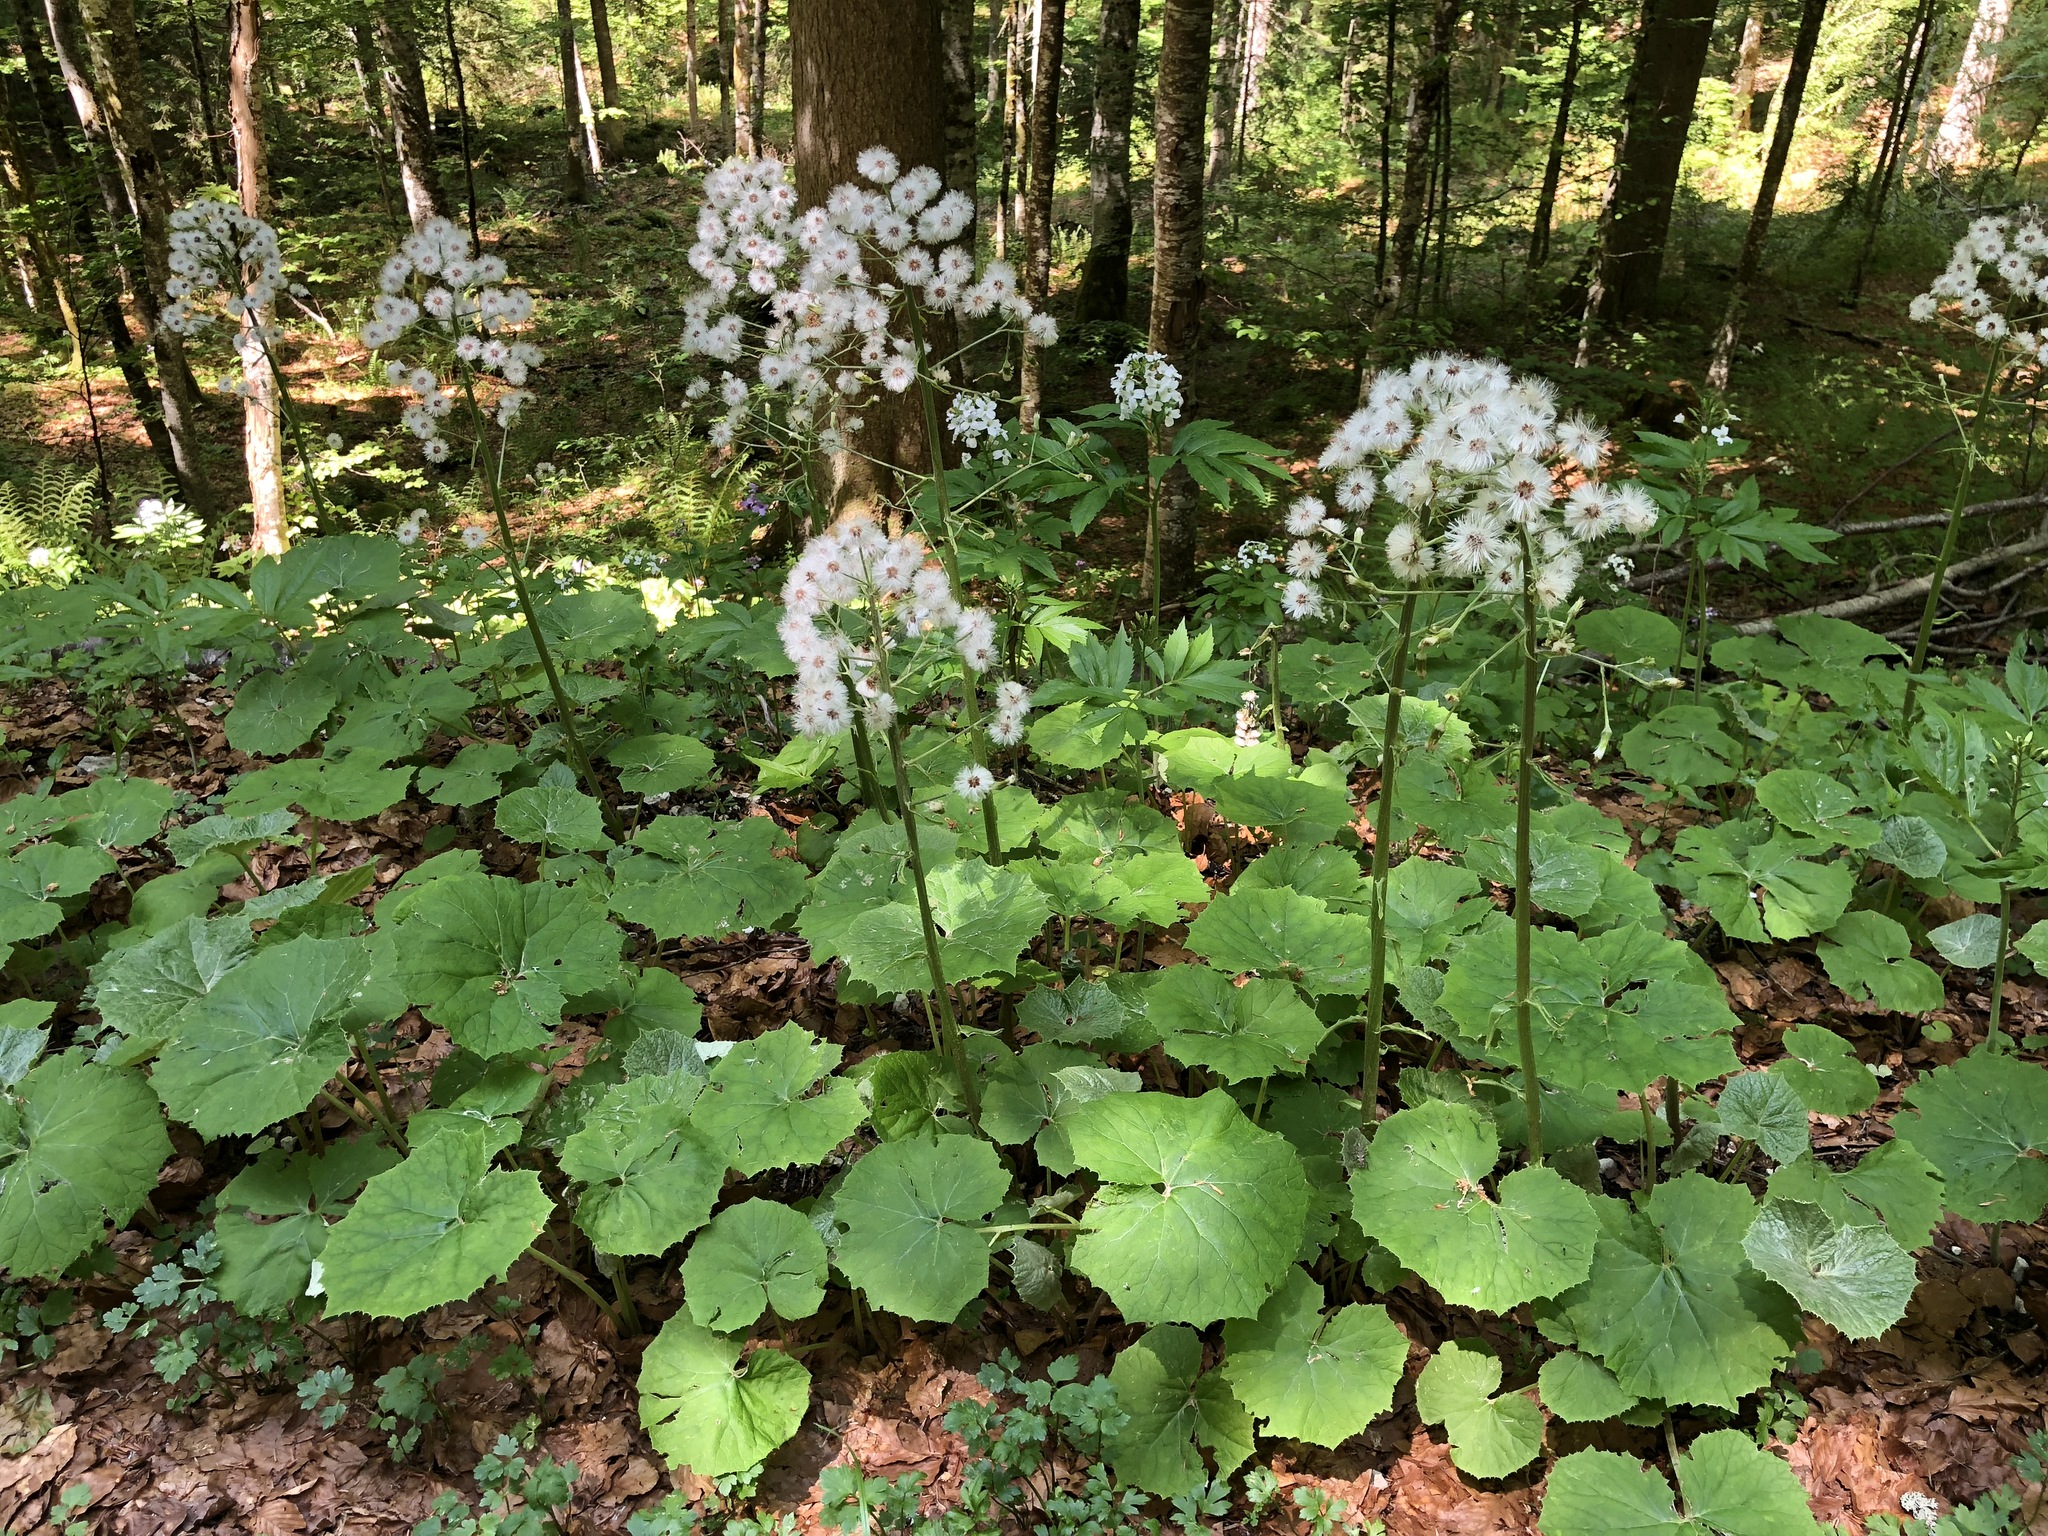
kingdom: Plantae
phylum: Tracheophyta
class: Magnoliopsida
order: Asterales
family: Asteraceae
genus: Petasites
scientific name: Petasites albus
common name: White butterbur
